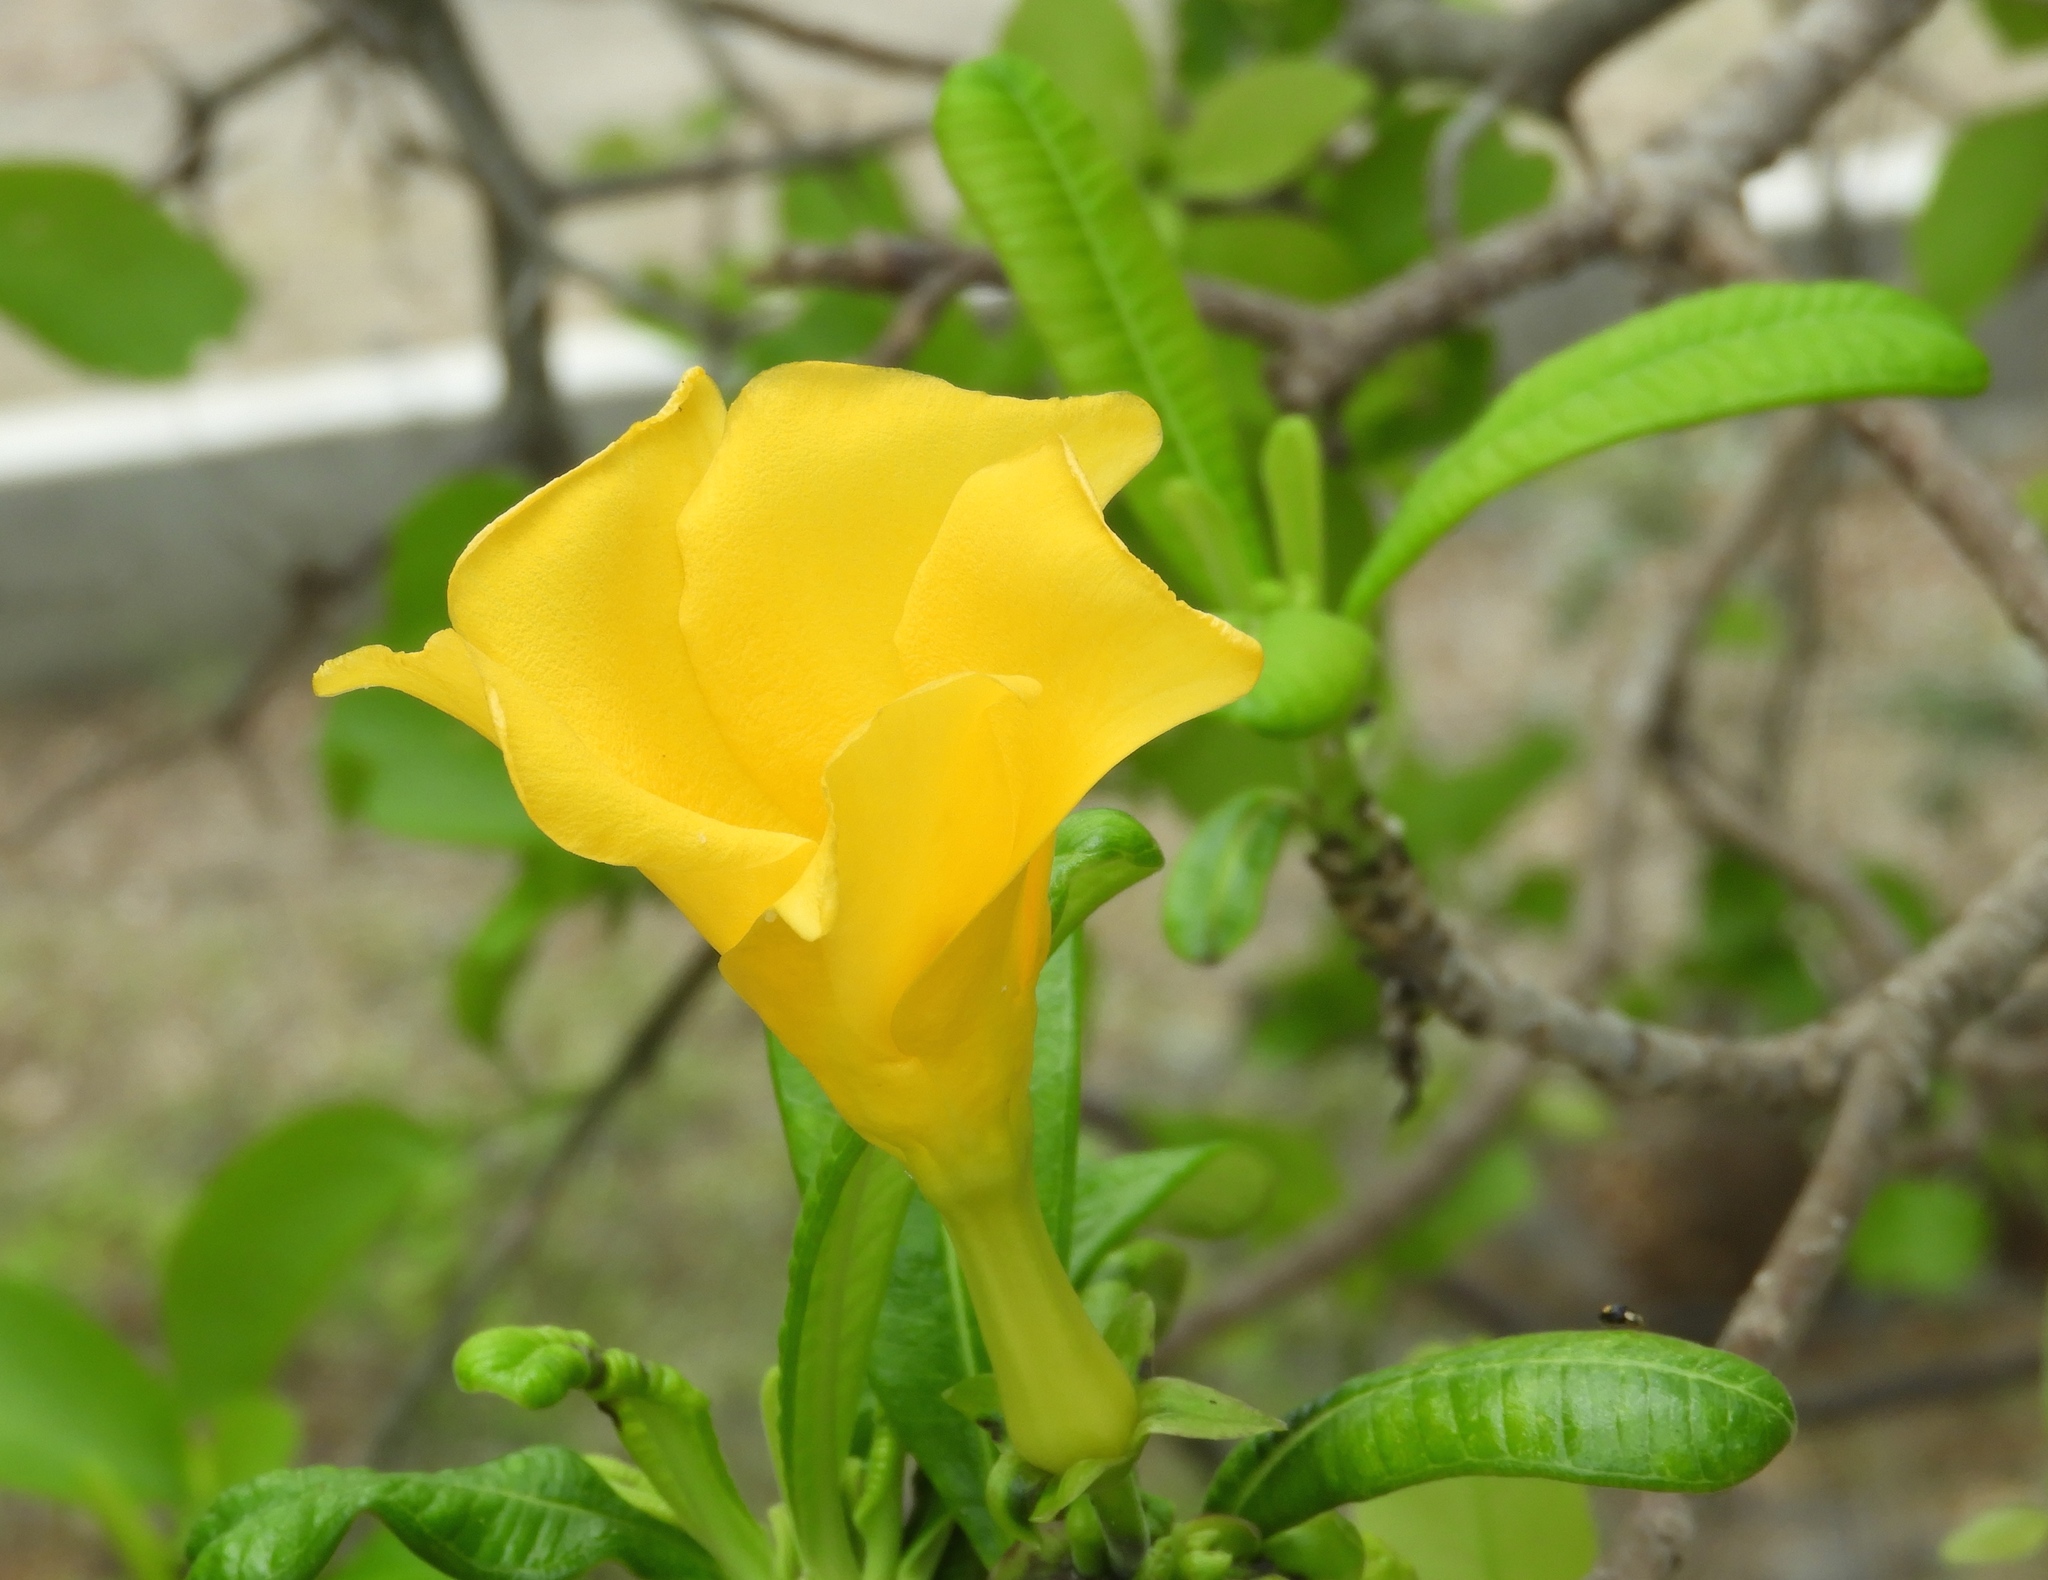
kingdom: Plantae
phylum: Tracheophyta
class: Magnoliopsida
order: Gentianales
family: Apocynaceae
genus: Cascabela
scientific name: Cascabela ovata
